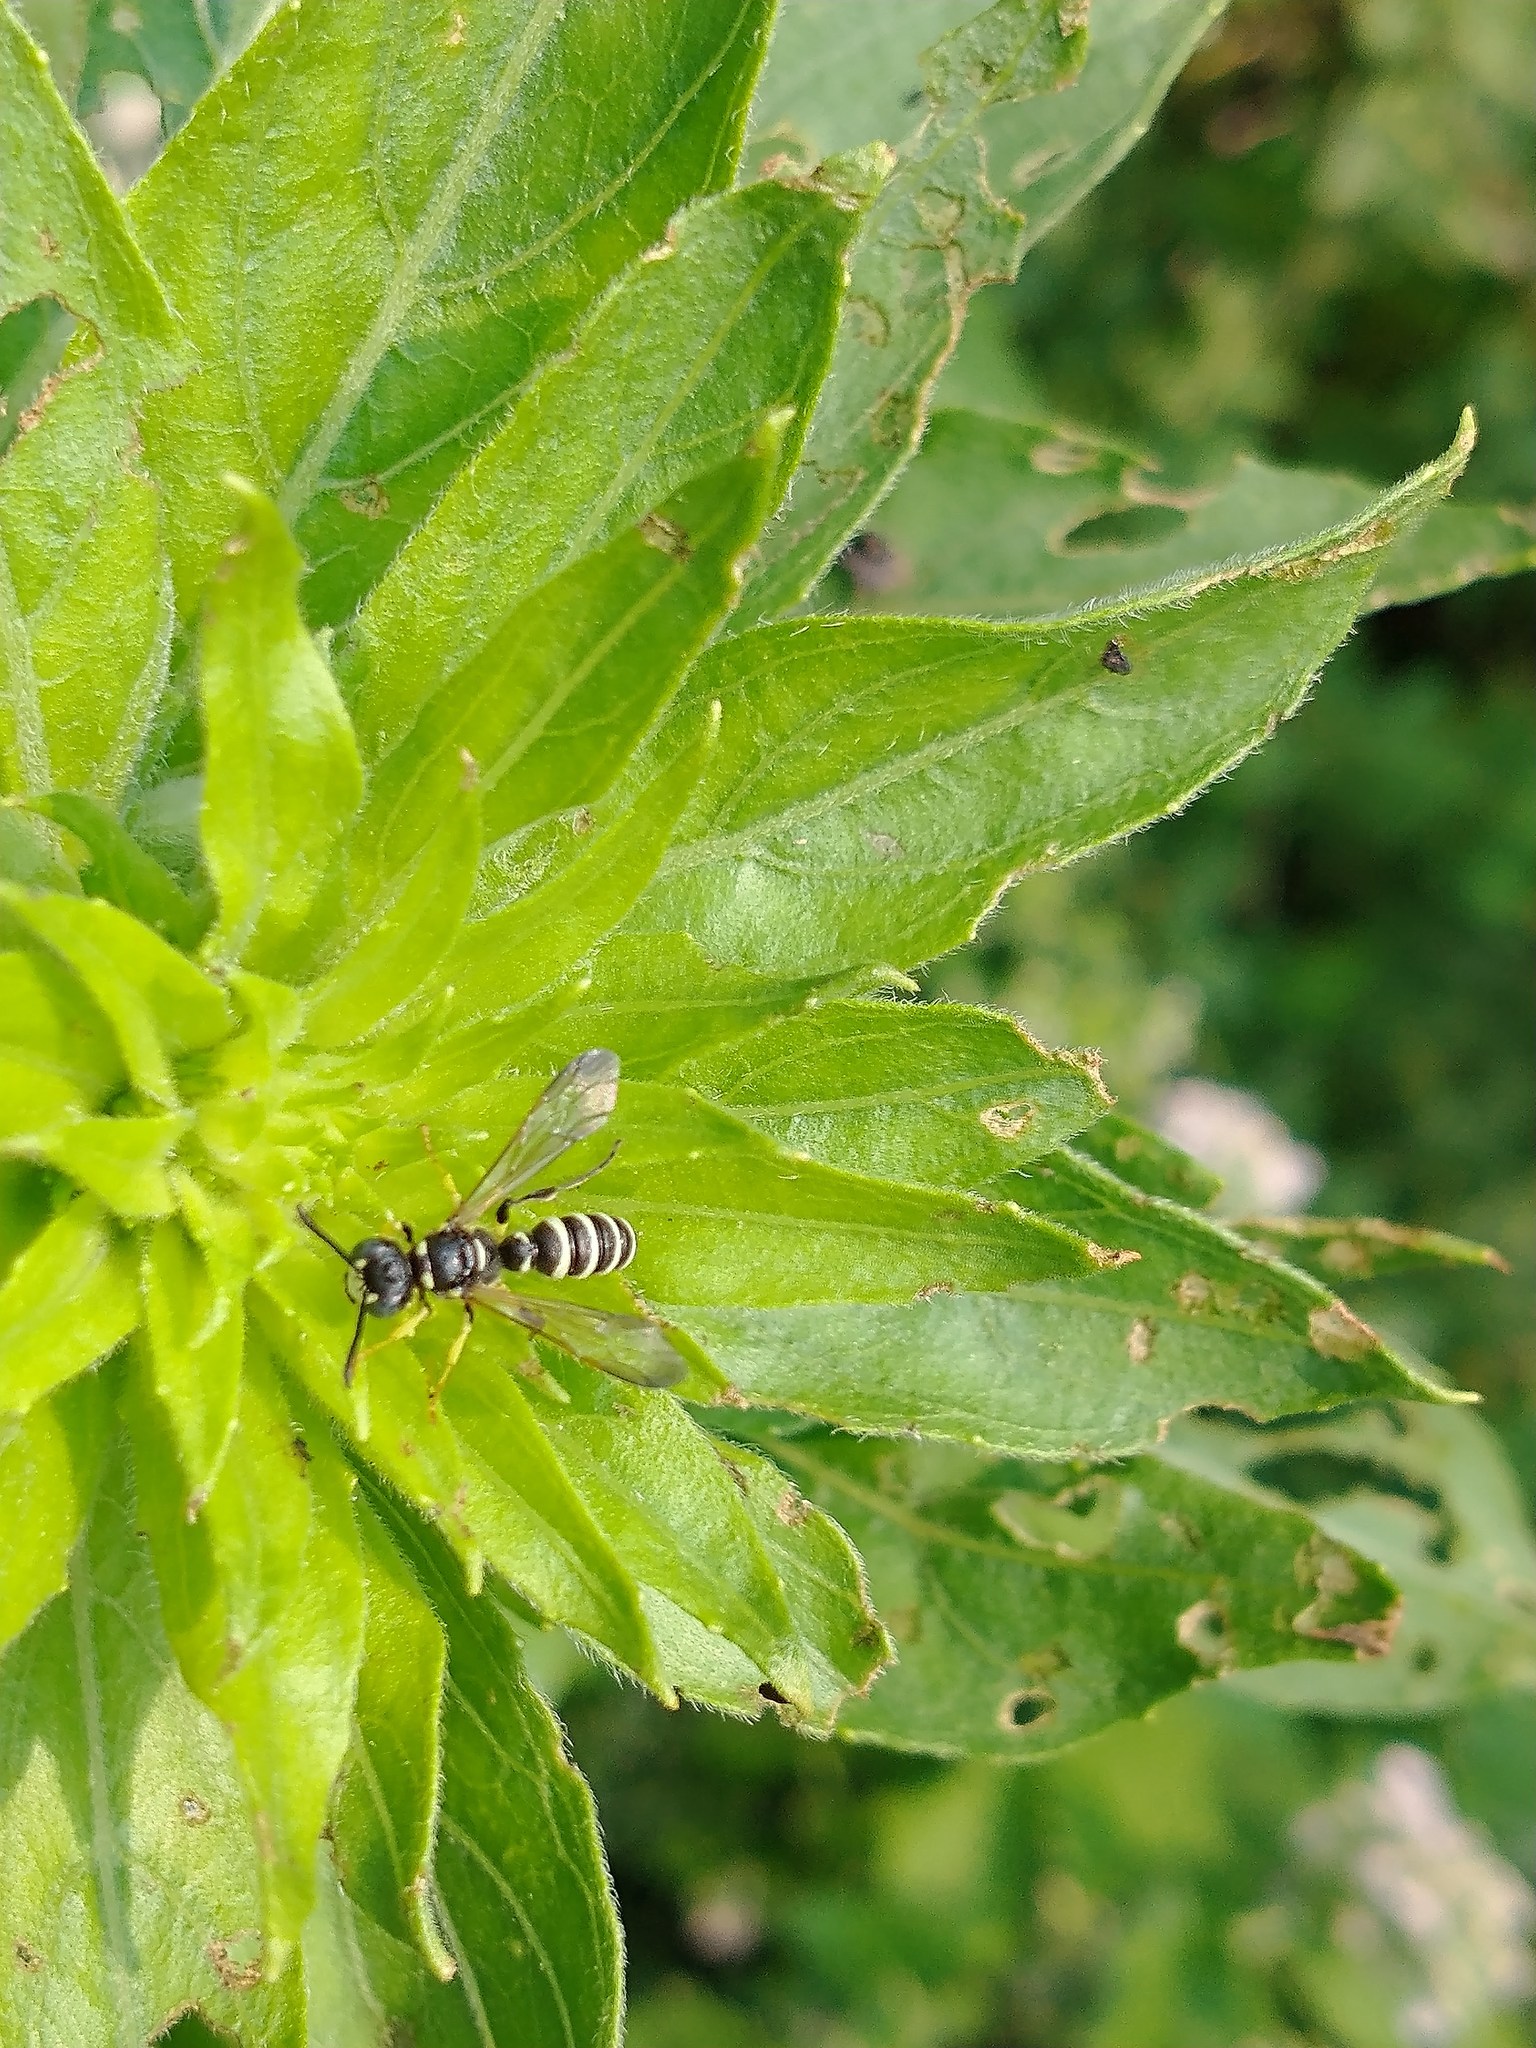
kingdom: Animalia
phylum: Arthropoda
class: Insecta
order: Hymenoptera
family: Crabronidae
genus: Cerceris
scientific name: Cerceris
